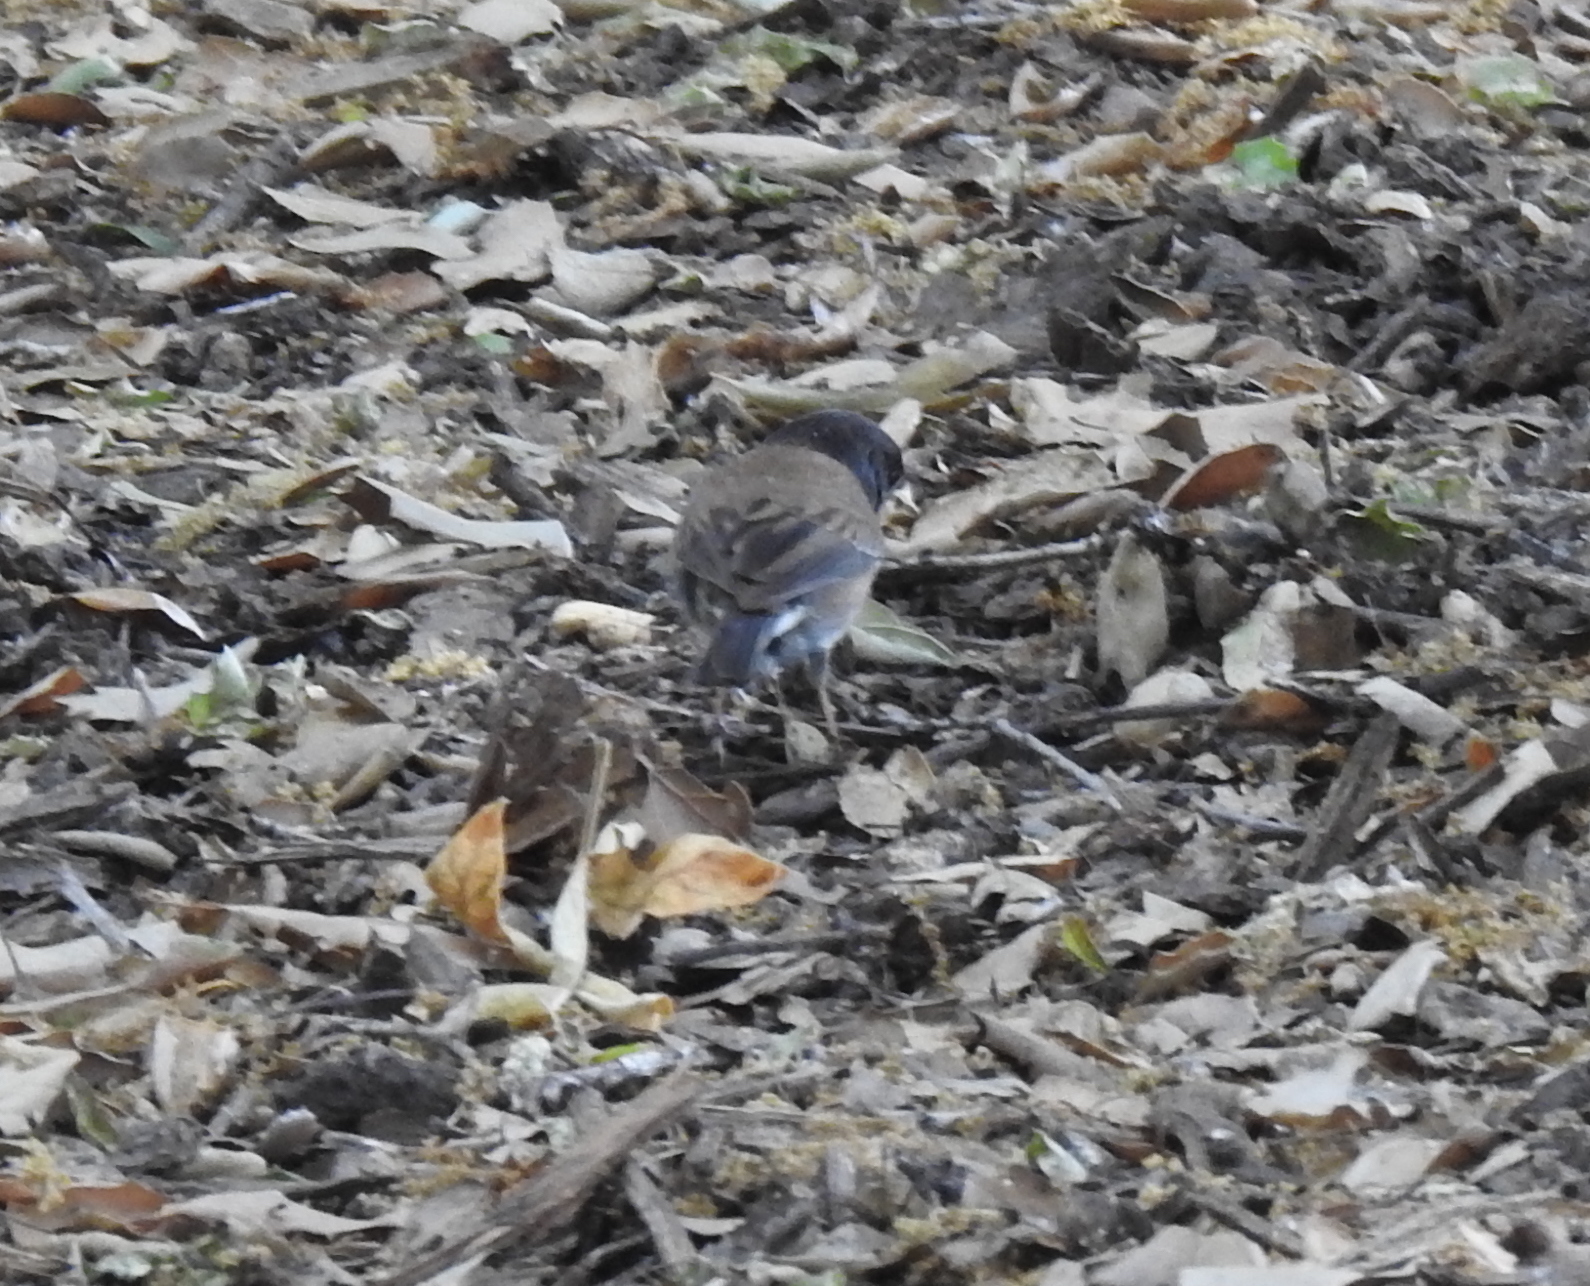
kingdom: Animalia
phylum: Chordata
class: Aves
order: Passeriformes
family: Passerellidae
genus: Junco
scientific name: Junco hyemalis
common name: Dark-eyed junco
